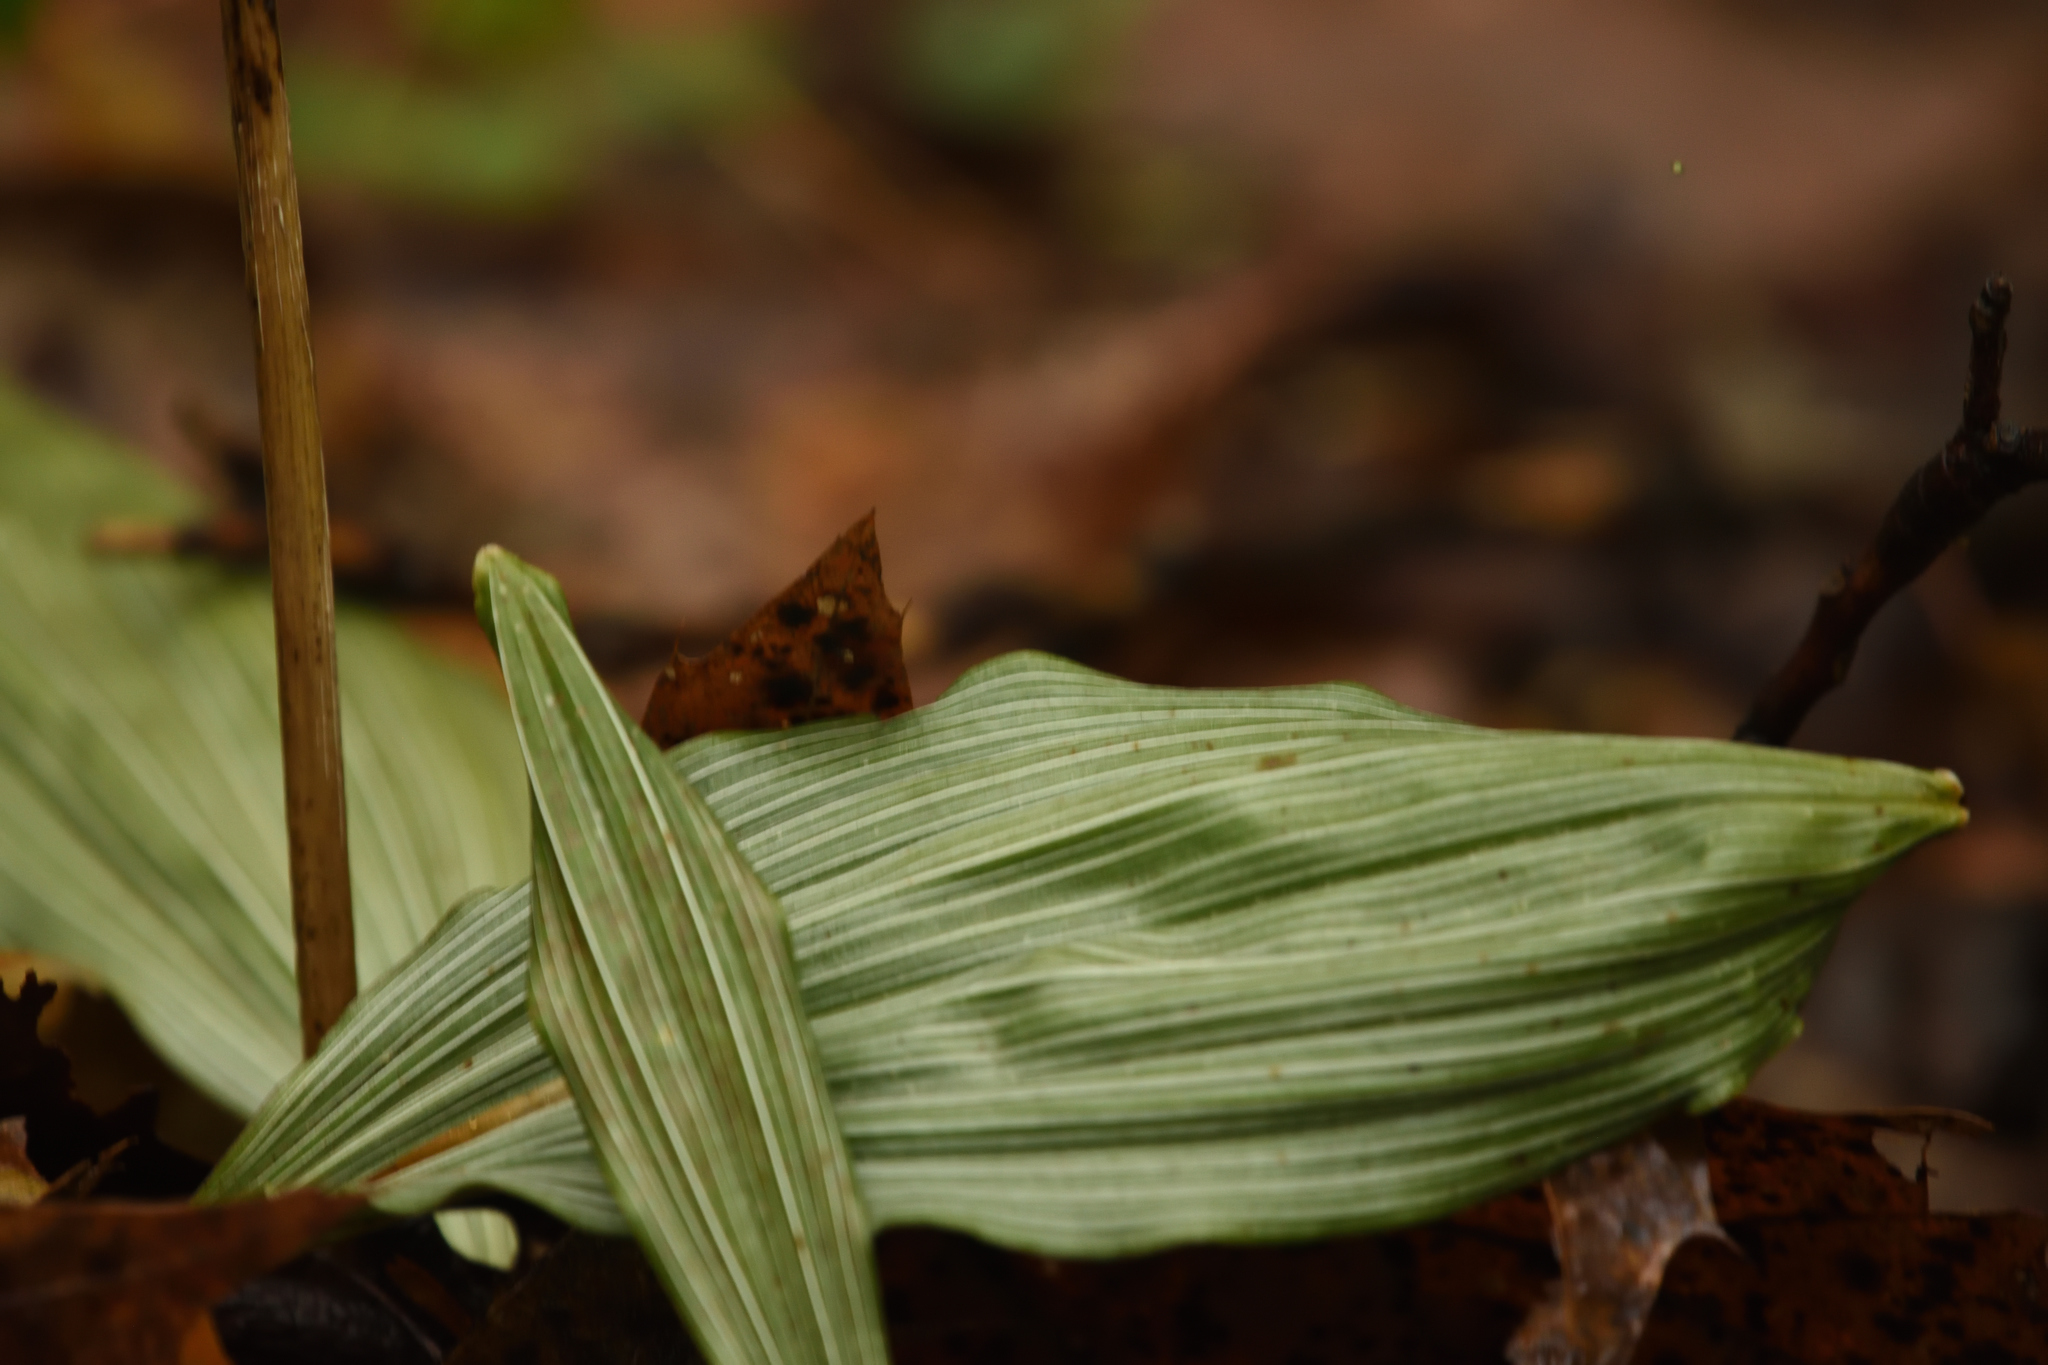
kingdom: Plantae
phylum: Tracheophyta
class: Liliopsida
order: Asparagales
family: Orchidaceae
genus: Aplectrum
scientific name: Aplectrum hyemale
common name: Adam-and-eve
